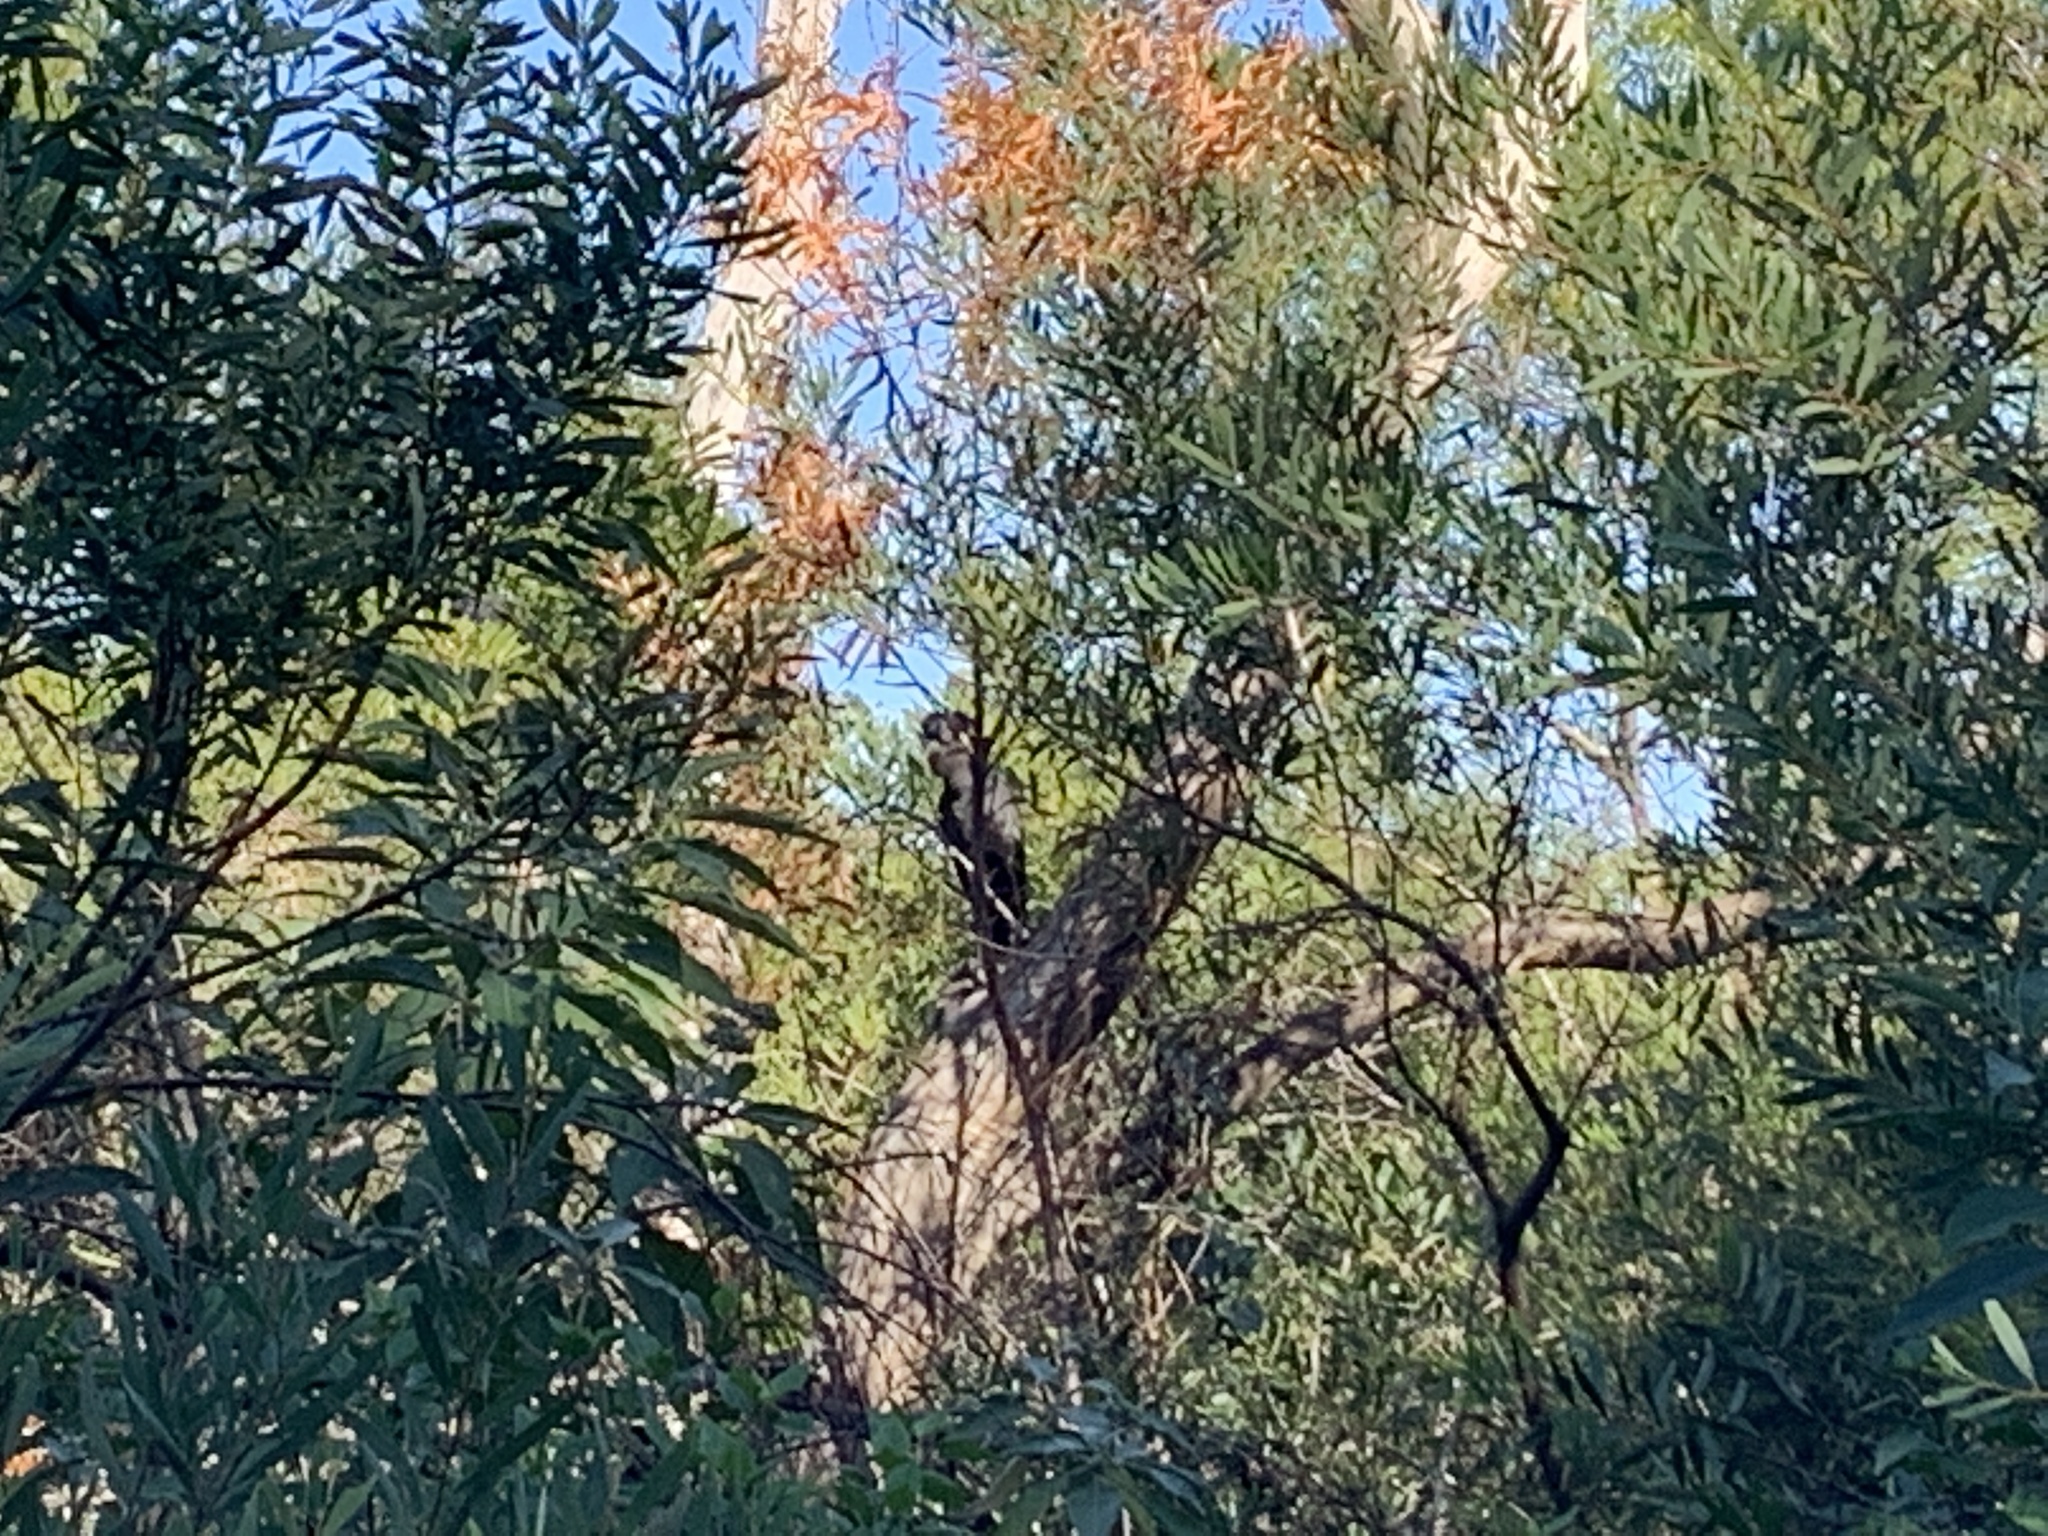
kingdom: Animalia
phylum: Chordata
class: Aves
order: Psittaciformes
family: Cacatuidae
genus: Zanda
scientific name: Zanda funerea
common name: Yellow-tailed black-cockatoo
